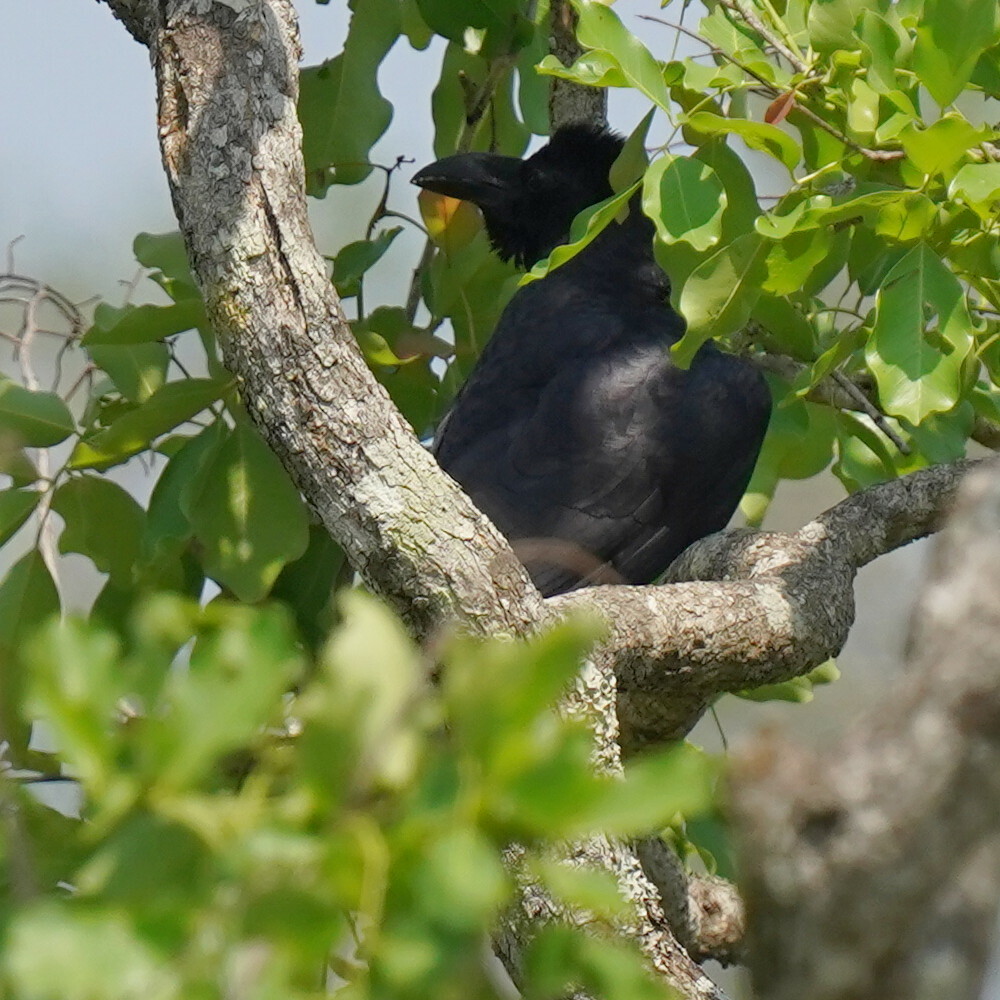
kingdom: Animalia
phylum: Chordata
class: Aves
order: Passeriformes
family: Corvidae
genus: Corvus
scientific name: Corvus macrorhynchos
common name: Large-billed crow
